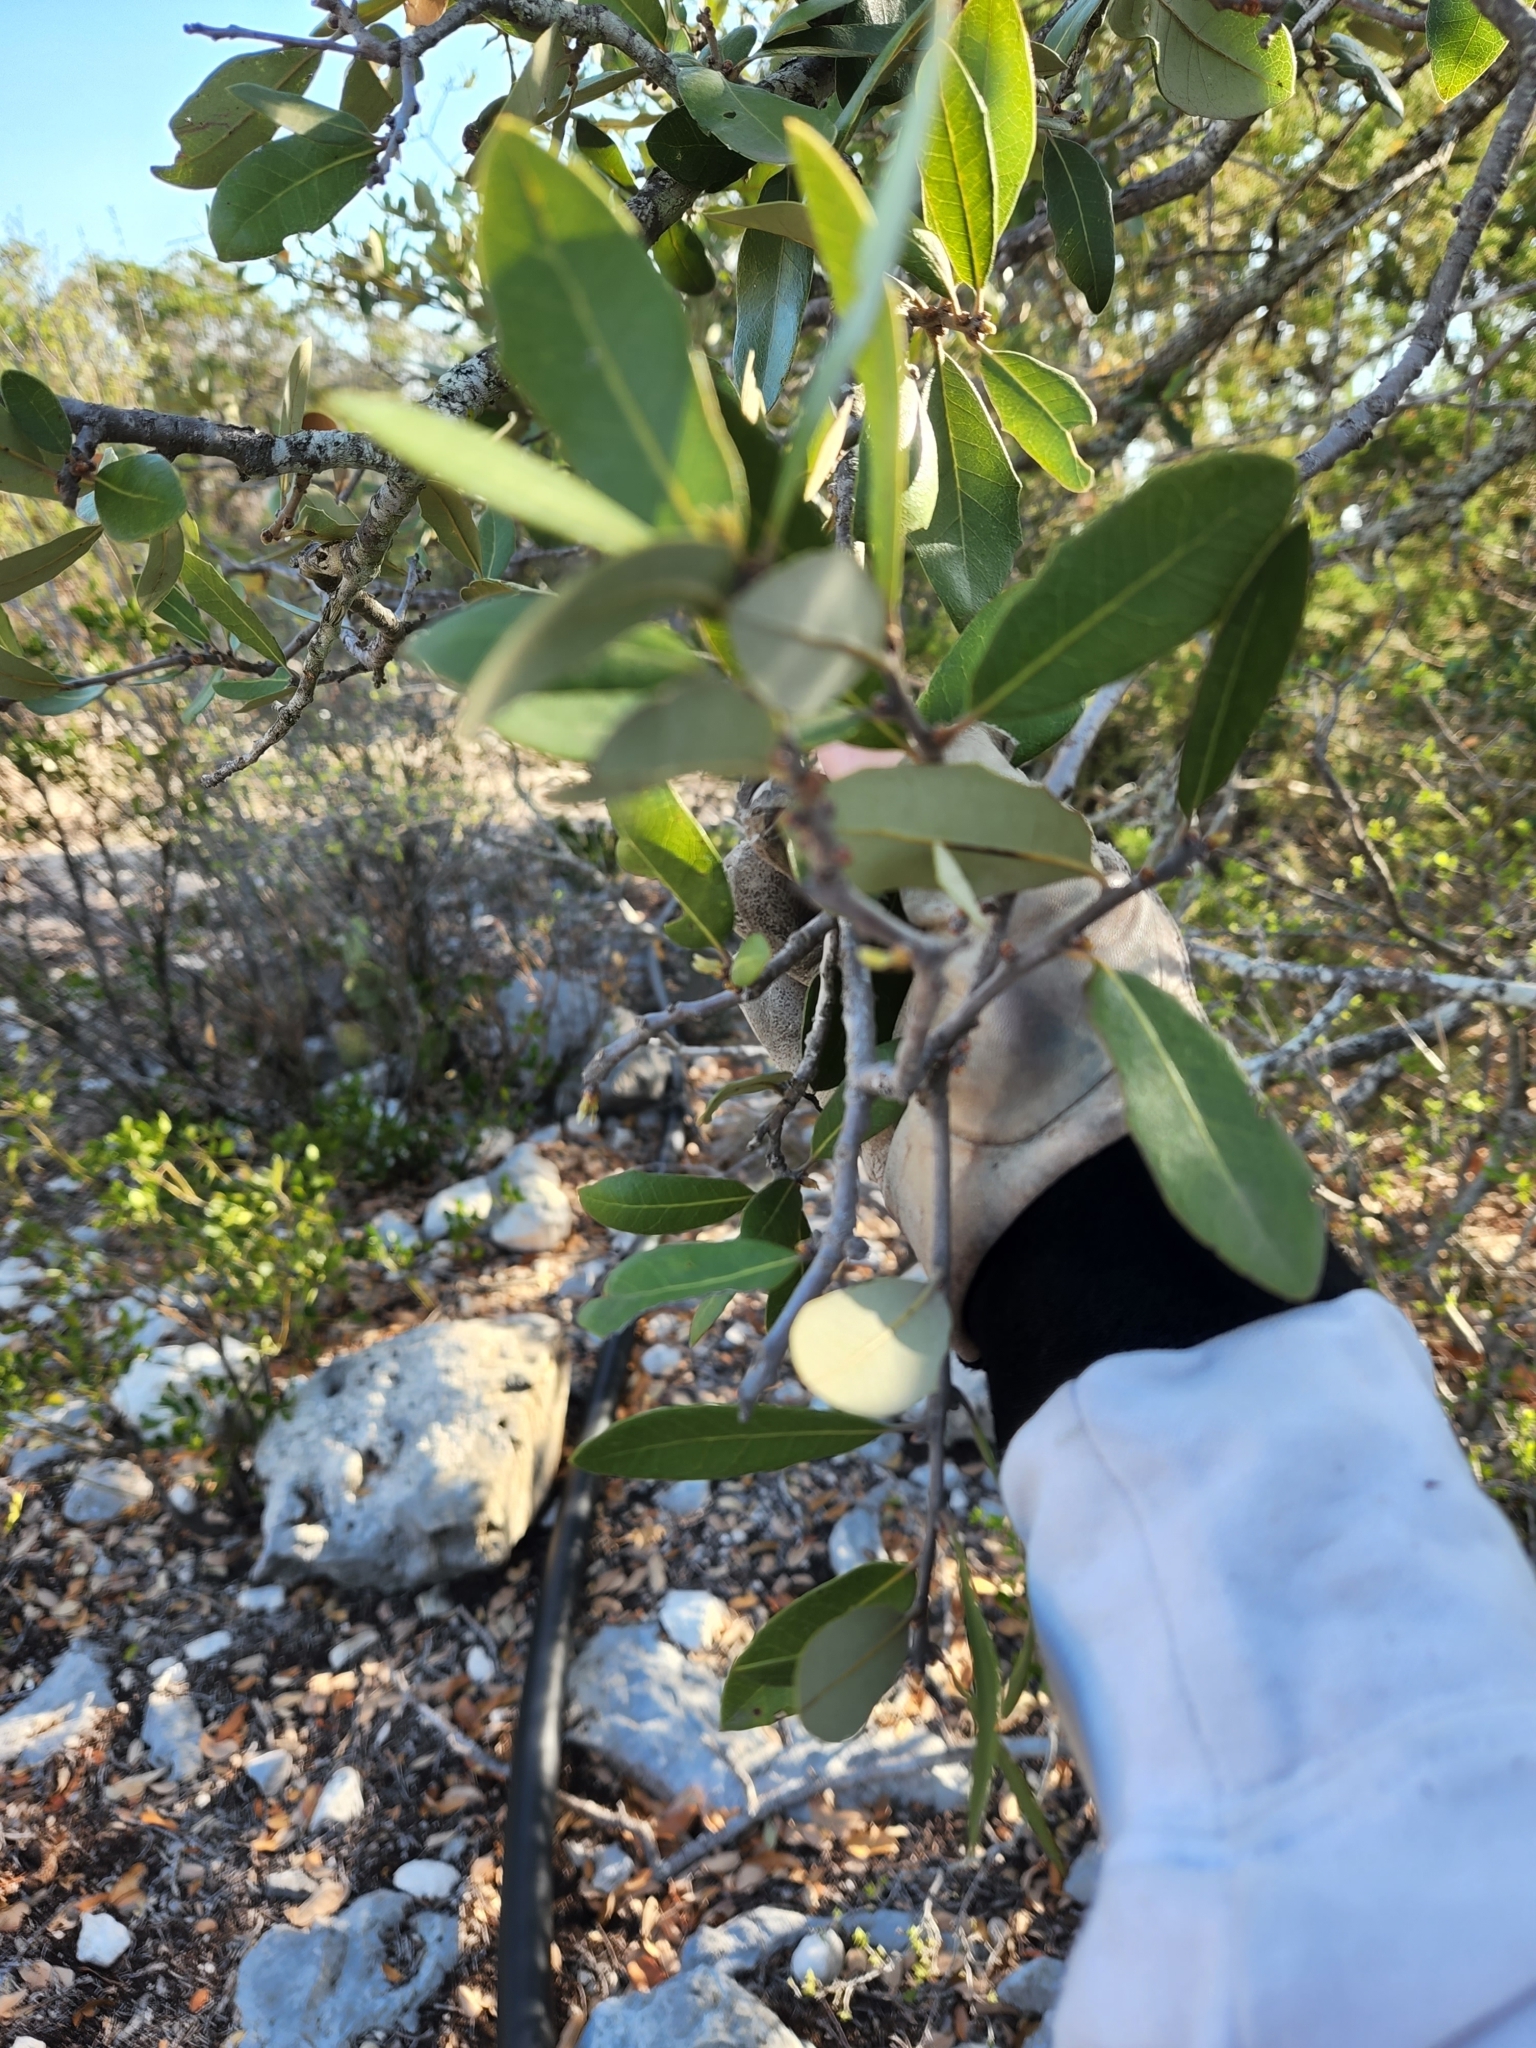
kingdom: Plantae
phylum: Tracheophyta
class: Magnoliopsida
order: Fagales
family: Fagaceae
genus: Quercus
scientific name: Quercus fusiformis
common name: Texas live oak
